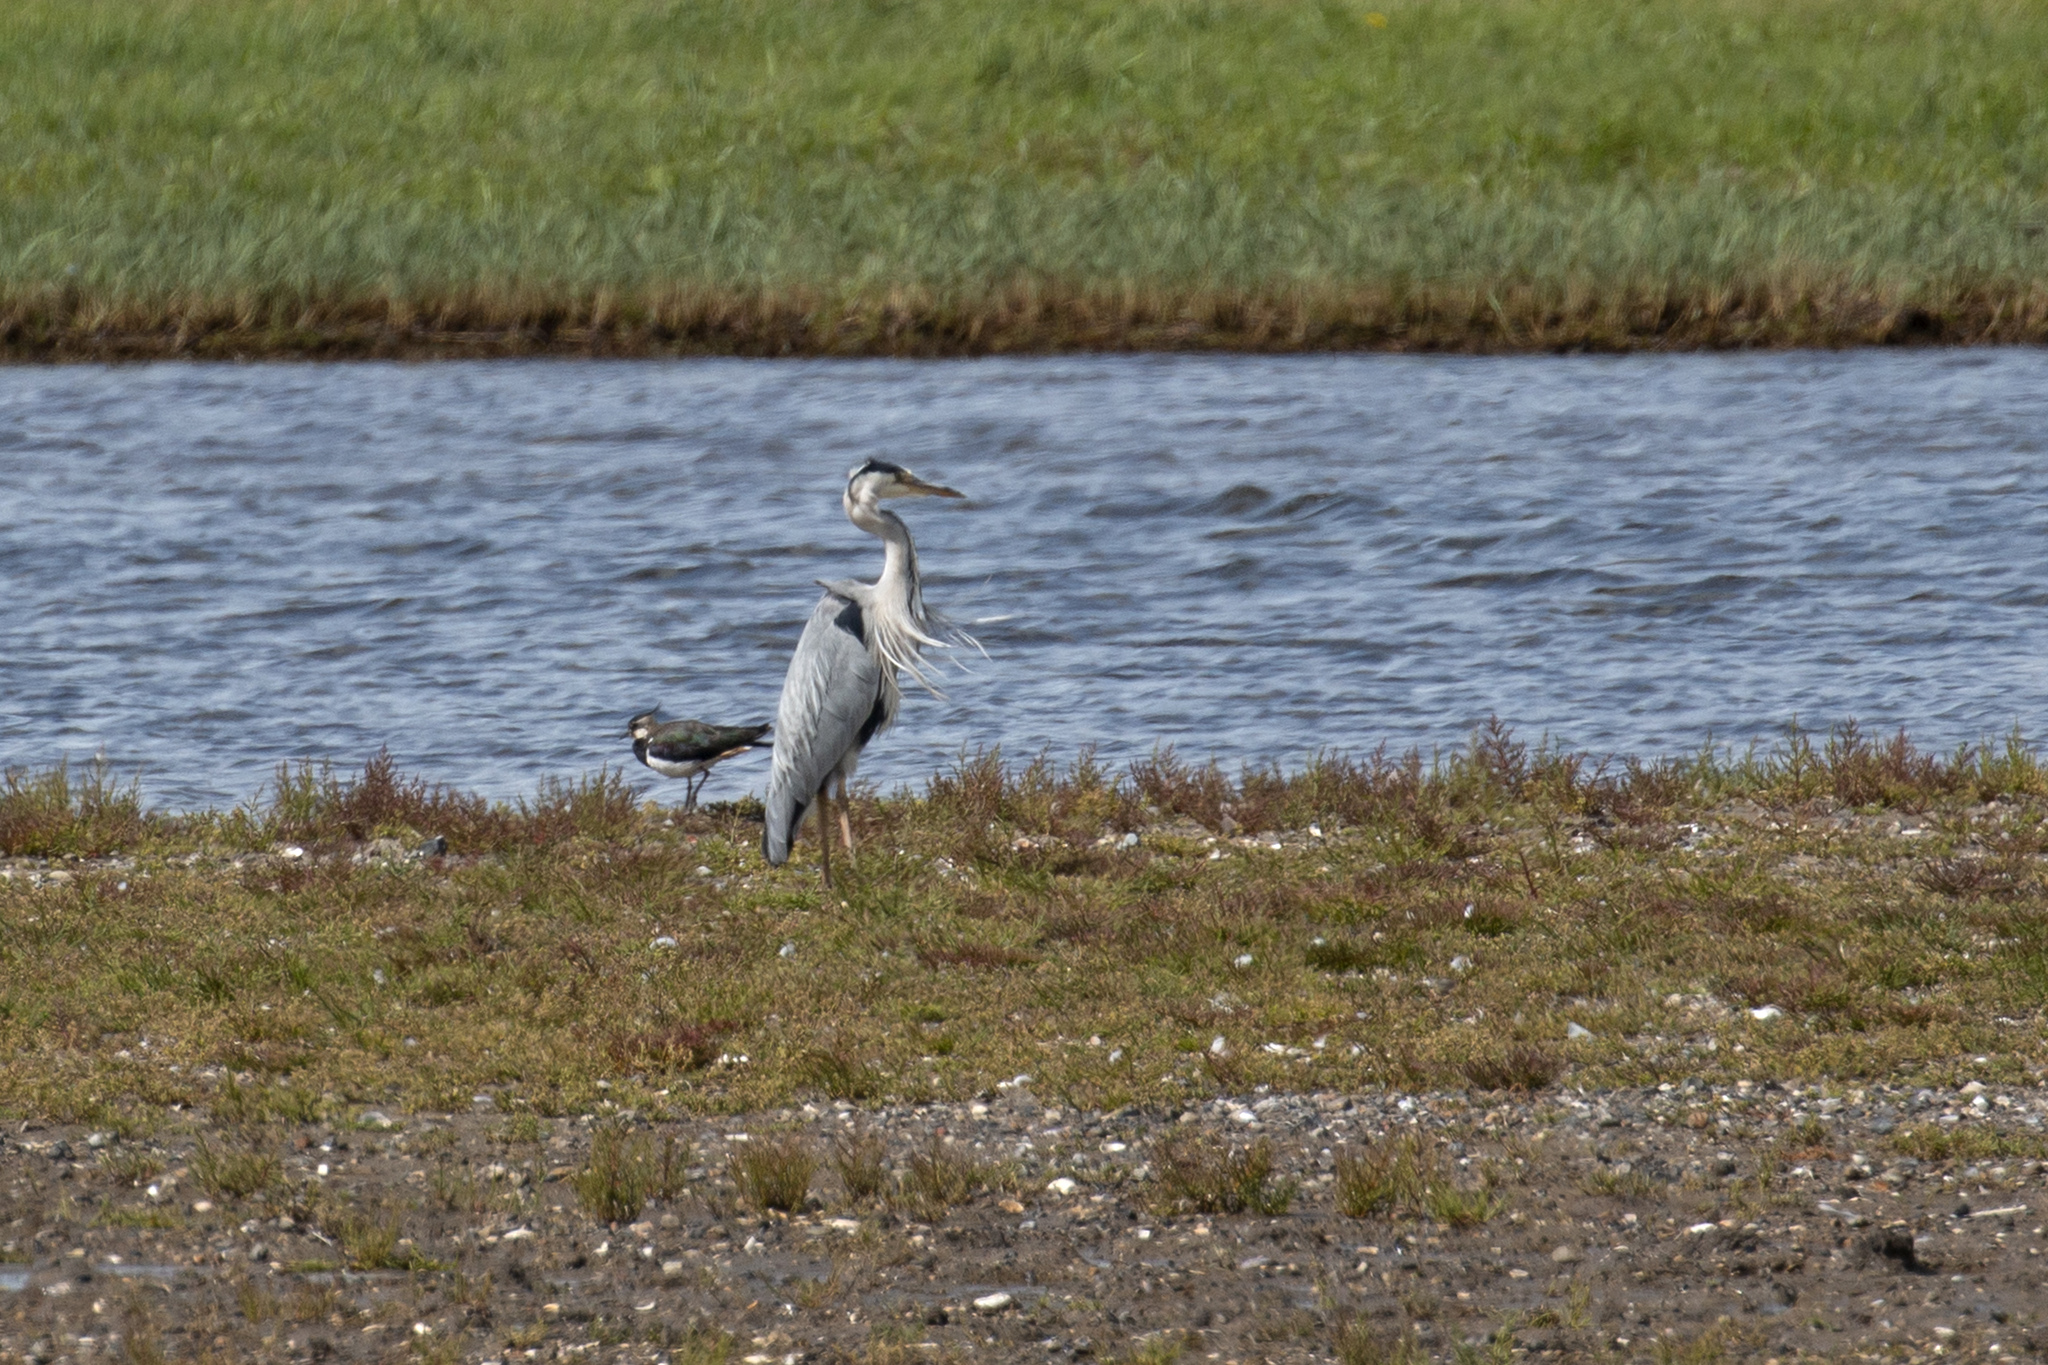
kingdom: Animalia
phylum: Chordata
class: Aves
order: Pelecaniformes
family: Ardeidae
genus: Ardea
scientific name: Ardea cinerea
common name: Grey heron
